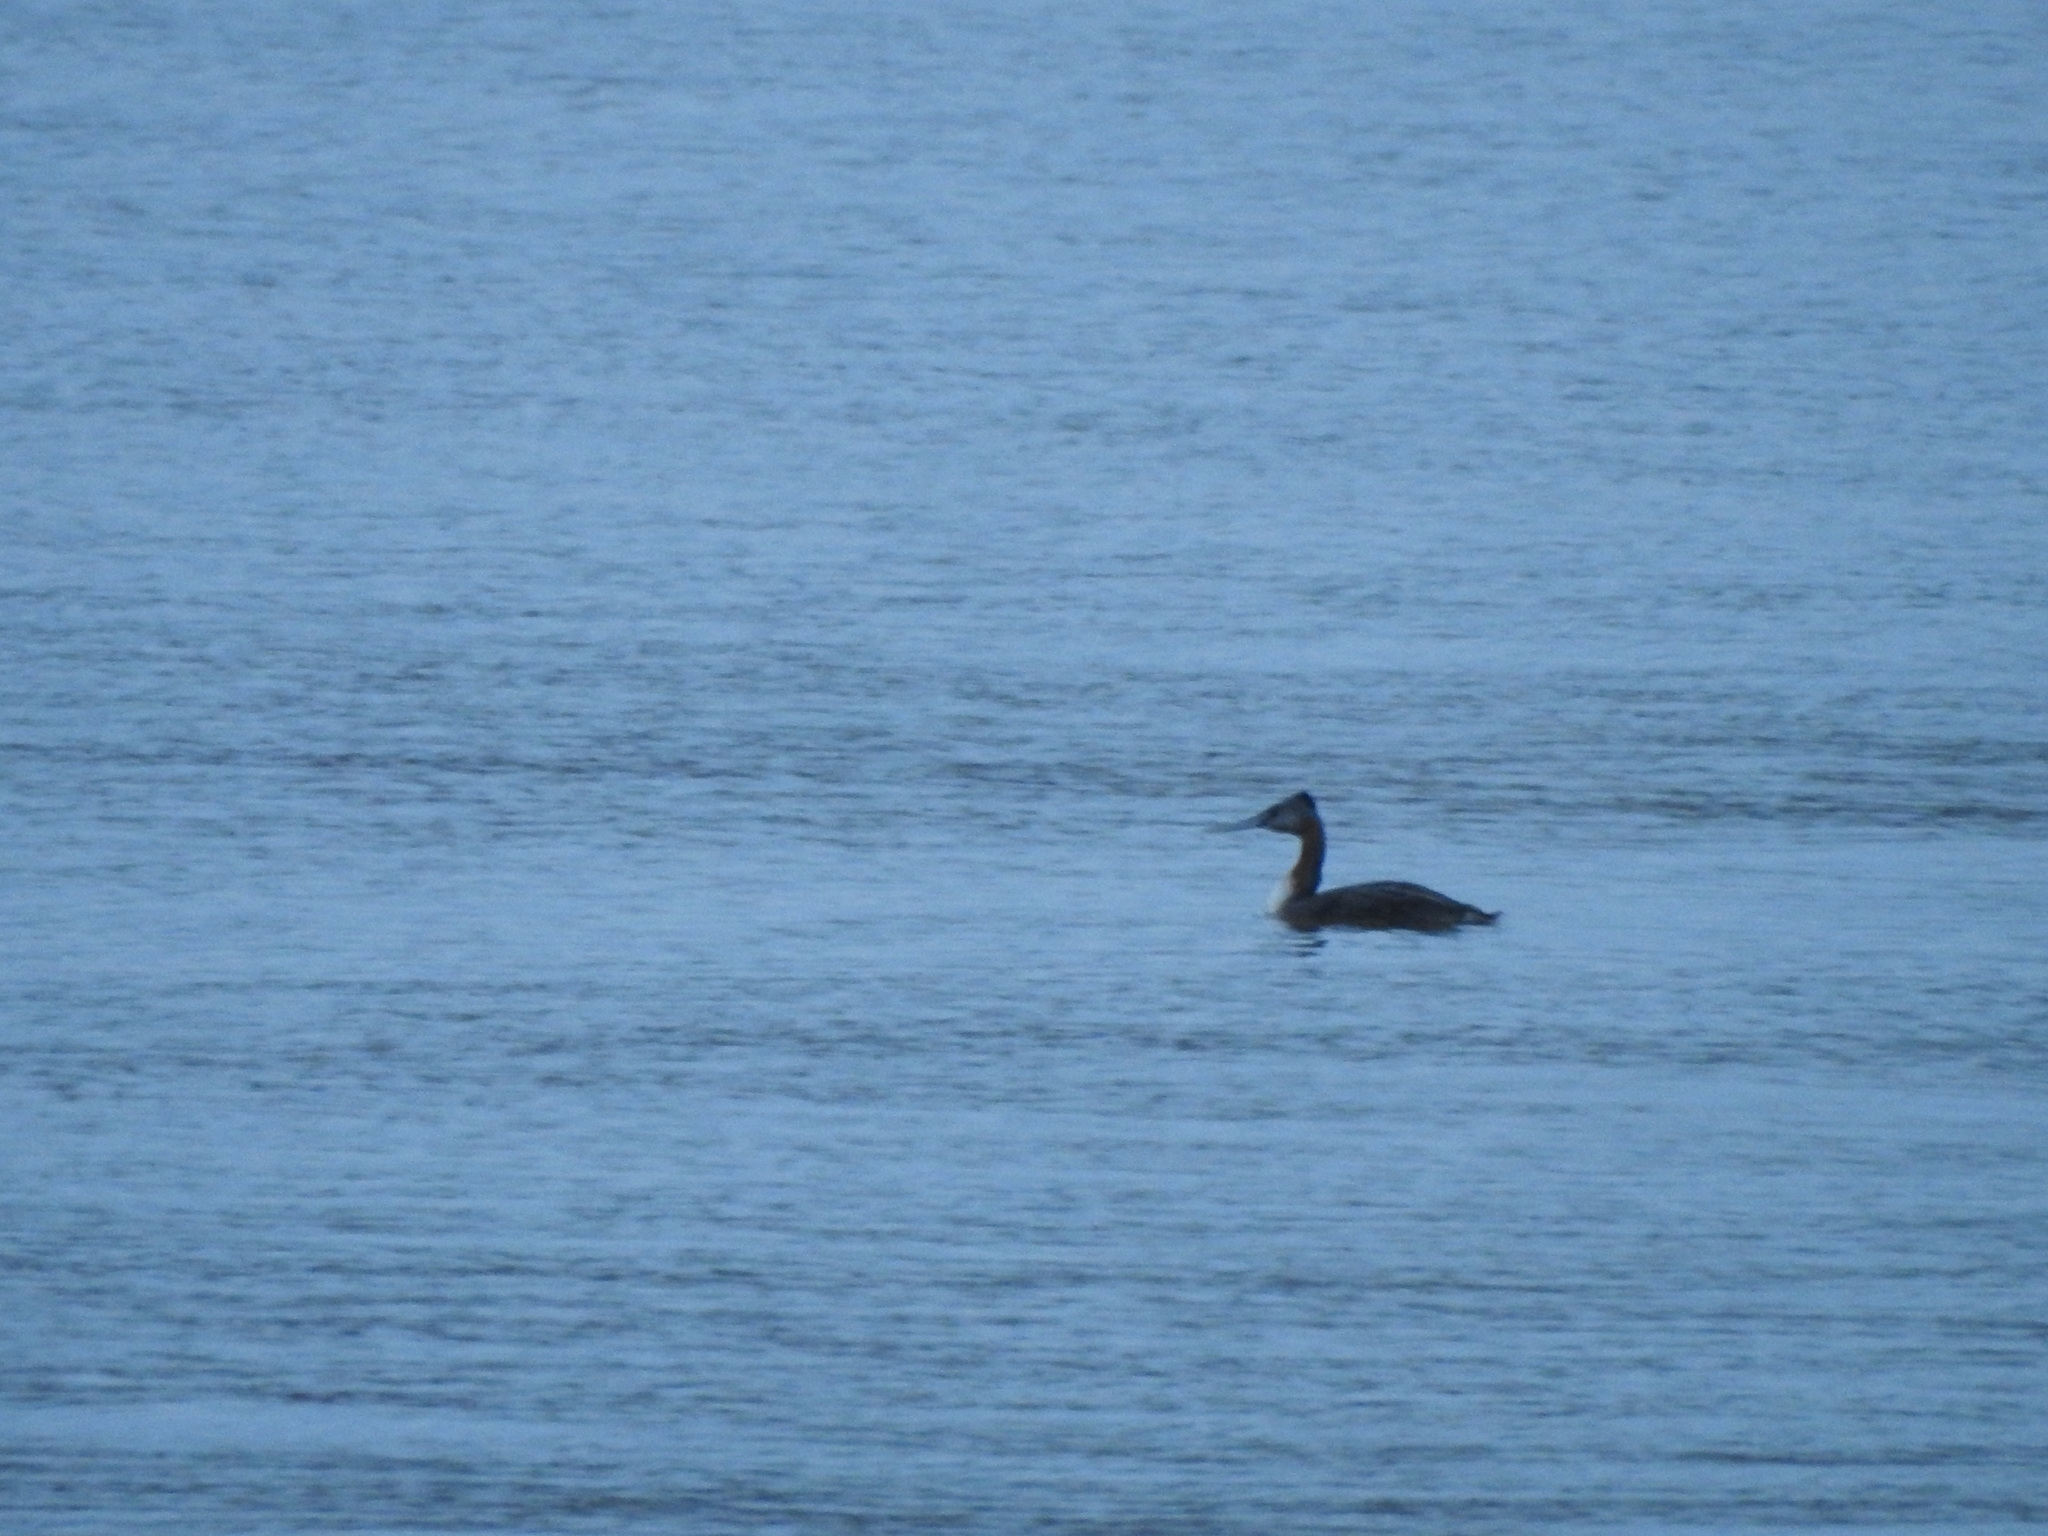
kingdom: Animalia
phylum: Chordata
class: Aves
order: Podicipediformes
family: Podicipedidae
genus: Podiceps
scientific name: Podiceps major
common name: Great grebe
